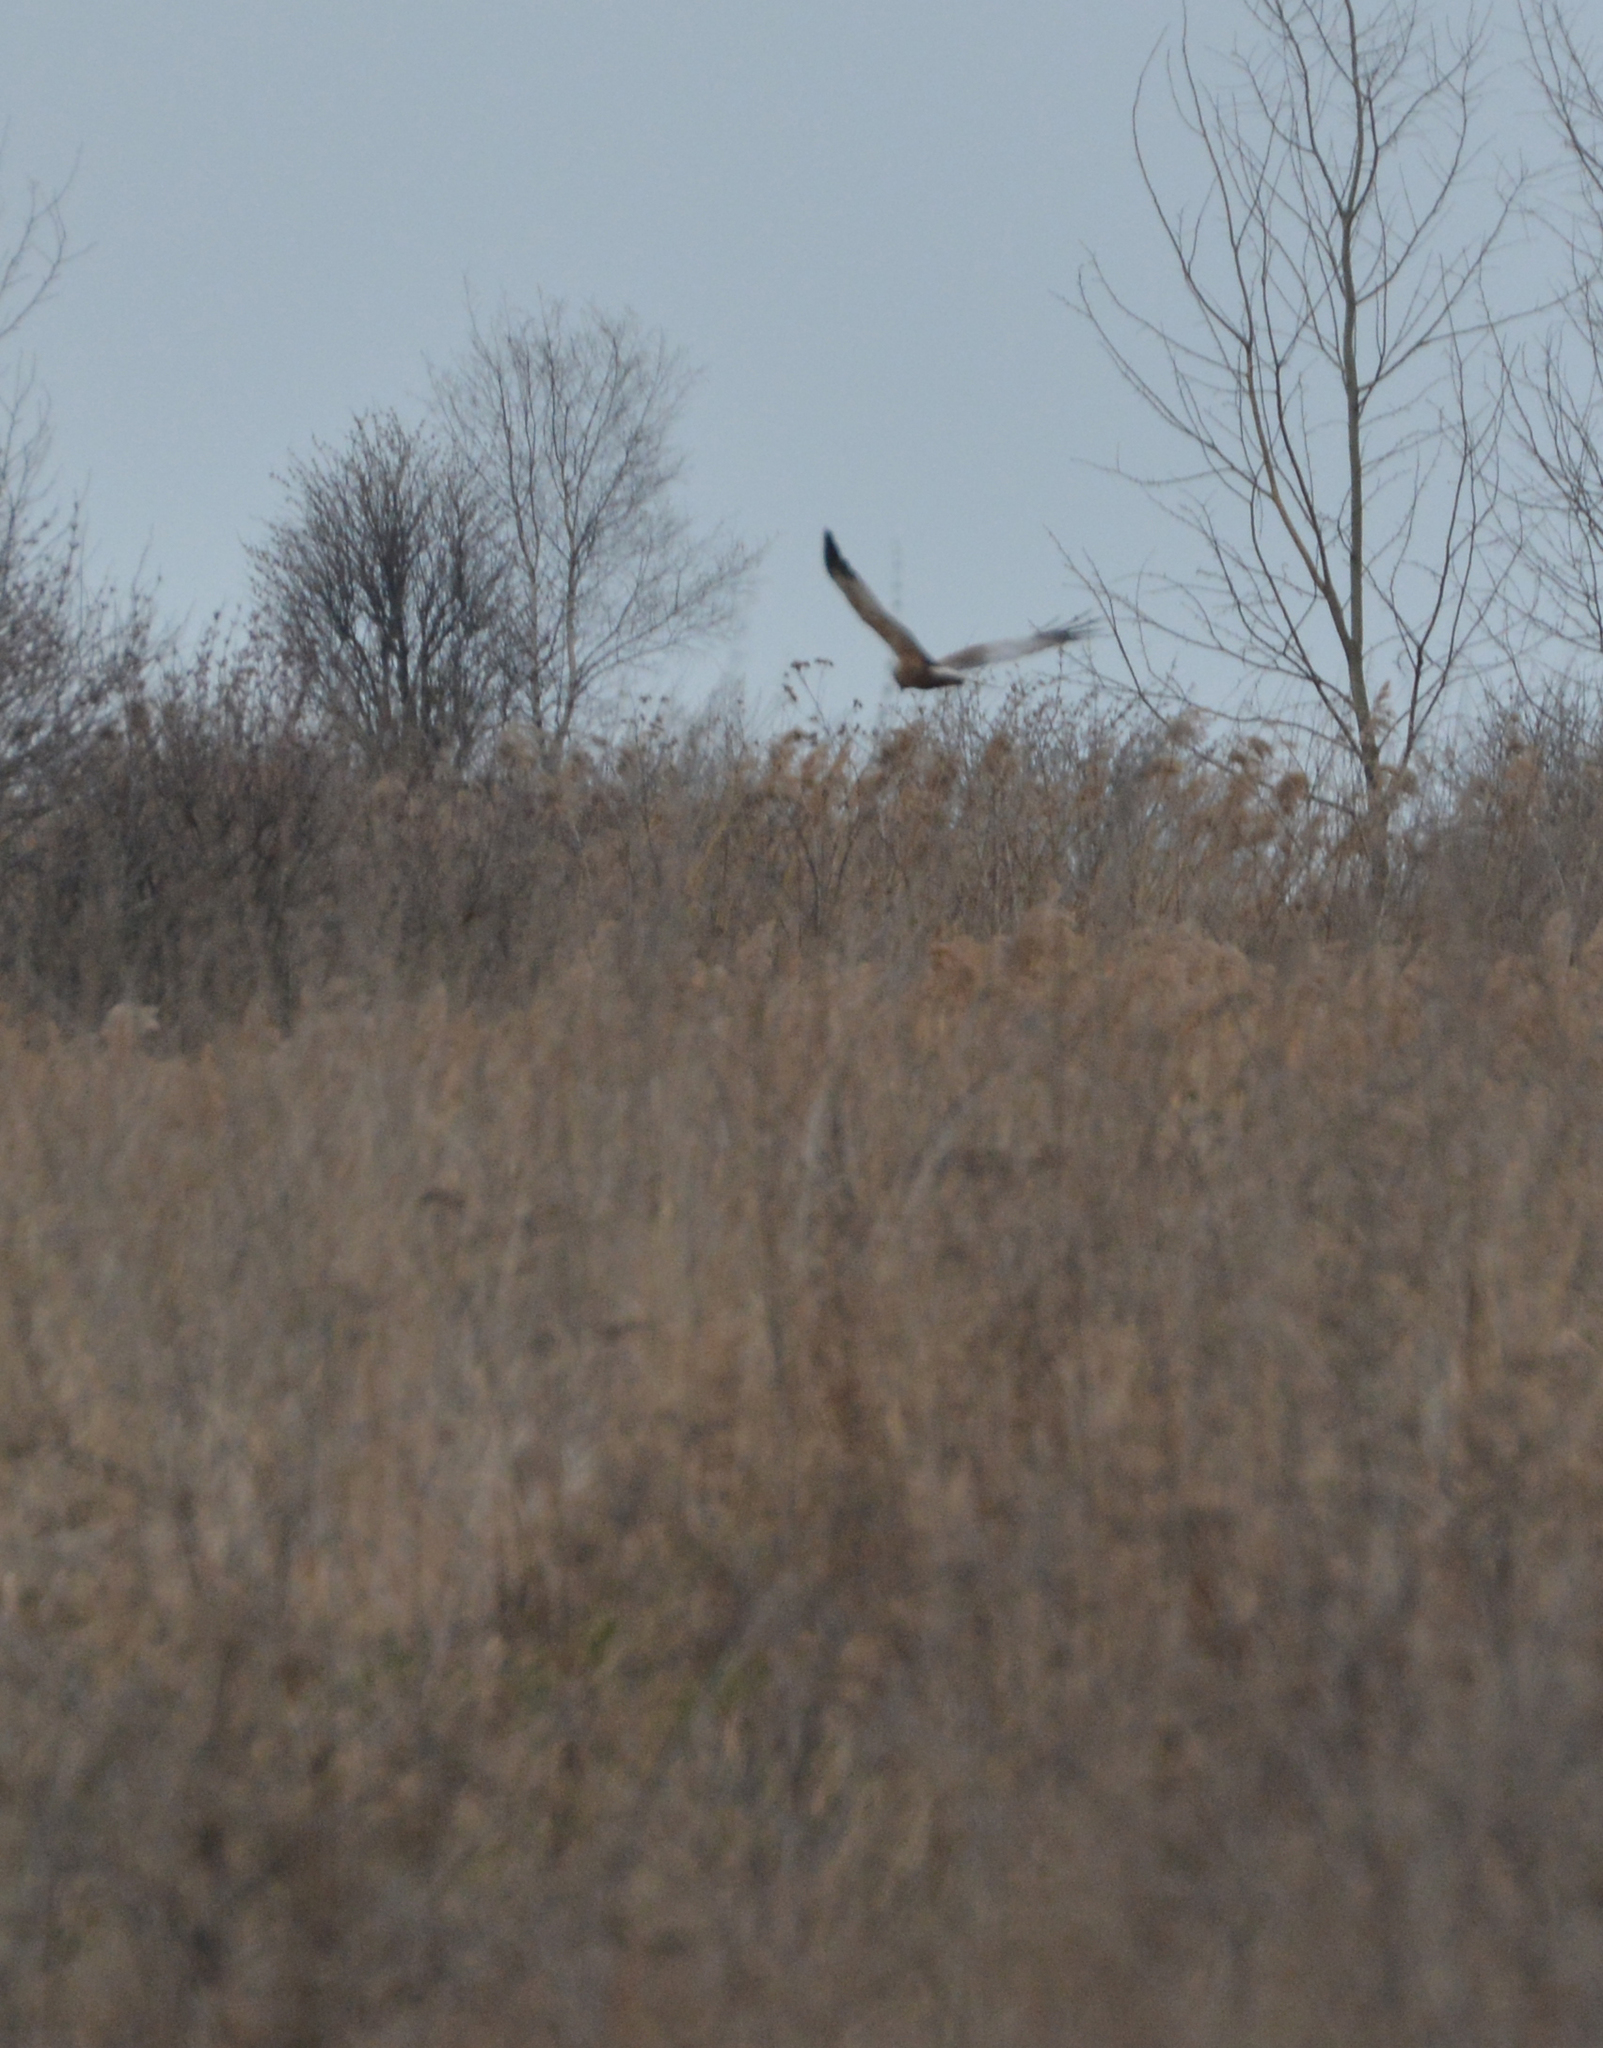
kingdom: Animalia
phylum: Chordata
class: Aves
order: Accipitriformes
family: Accipitridae
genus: Circus
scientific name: Circus aeruginosus
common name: Western marsh harrier
